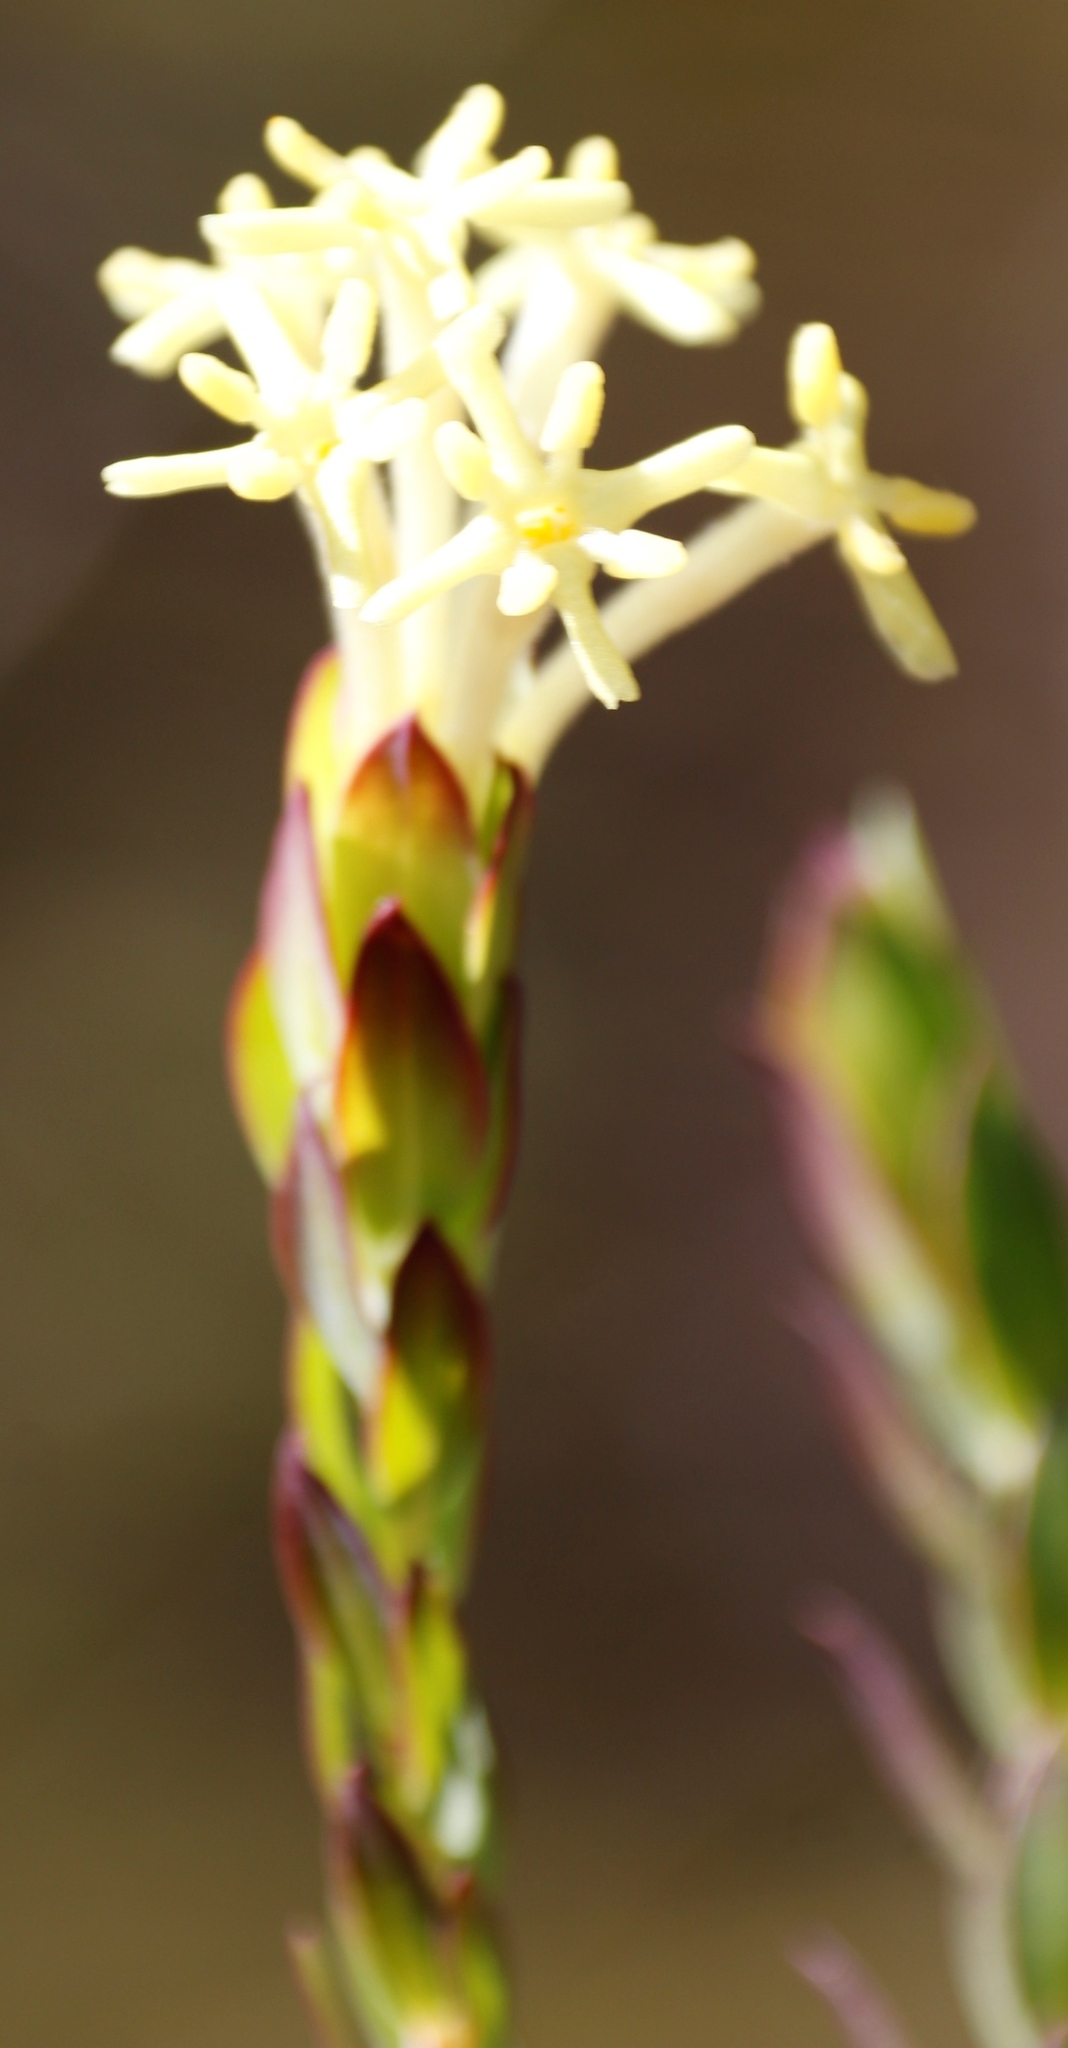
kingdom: Plantae
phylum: Tracheophyta
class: Magnoliopsida
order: Malvales
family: Thymelaeaceae
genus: Gnidia
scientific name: Gnidia oppositifolia
